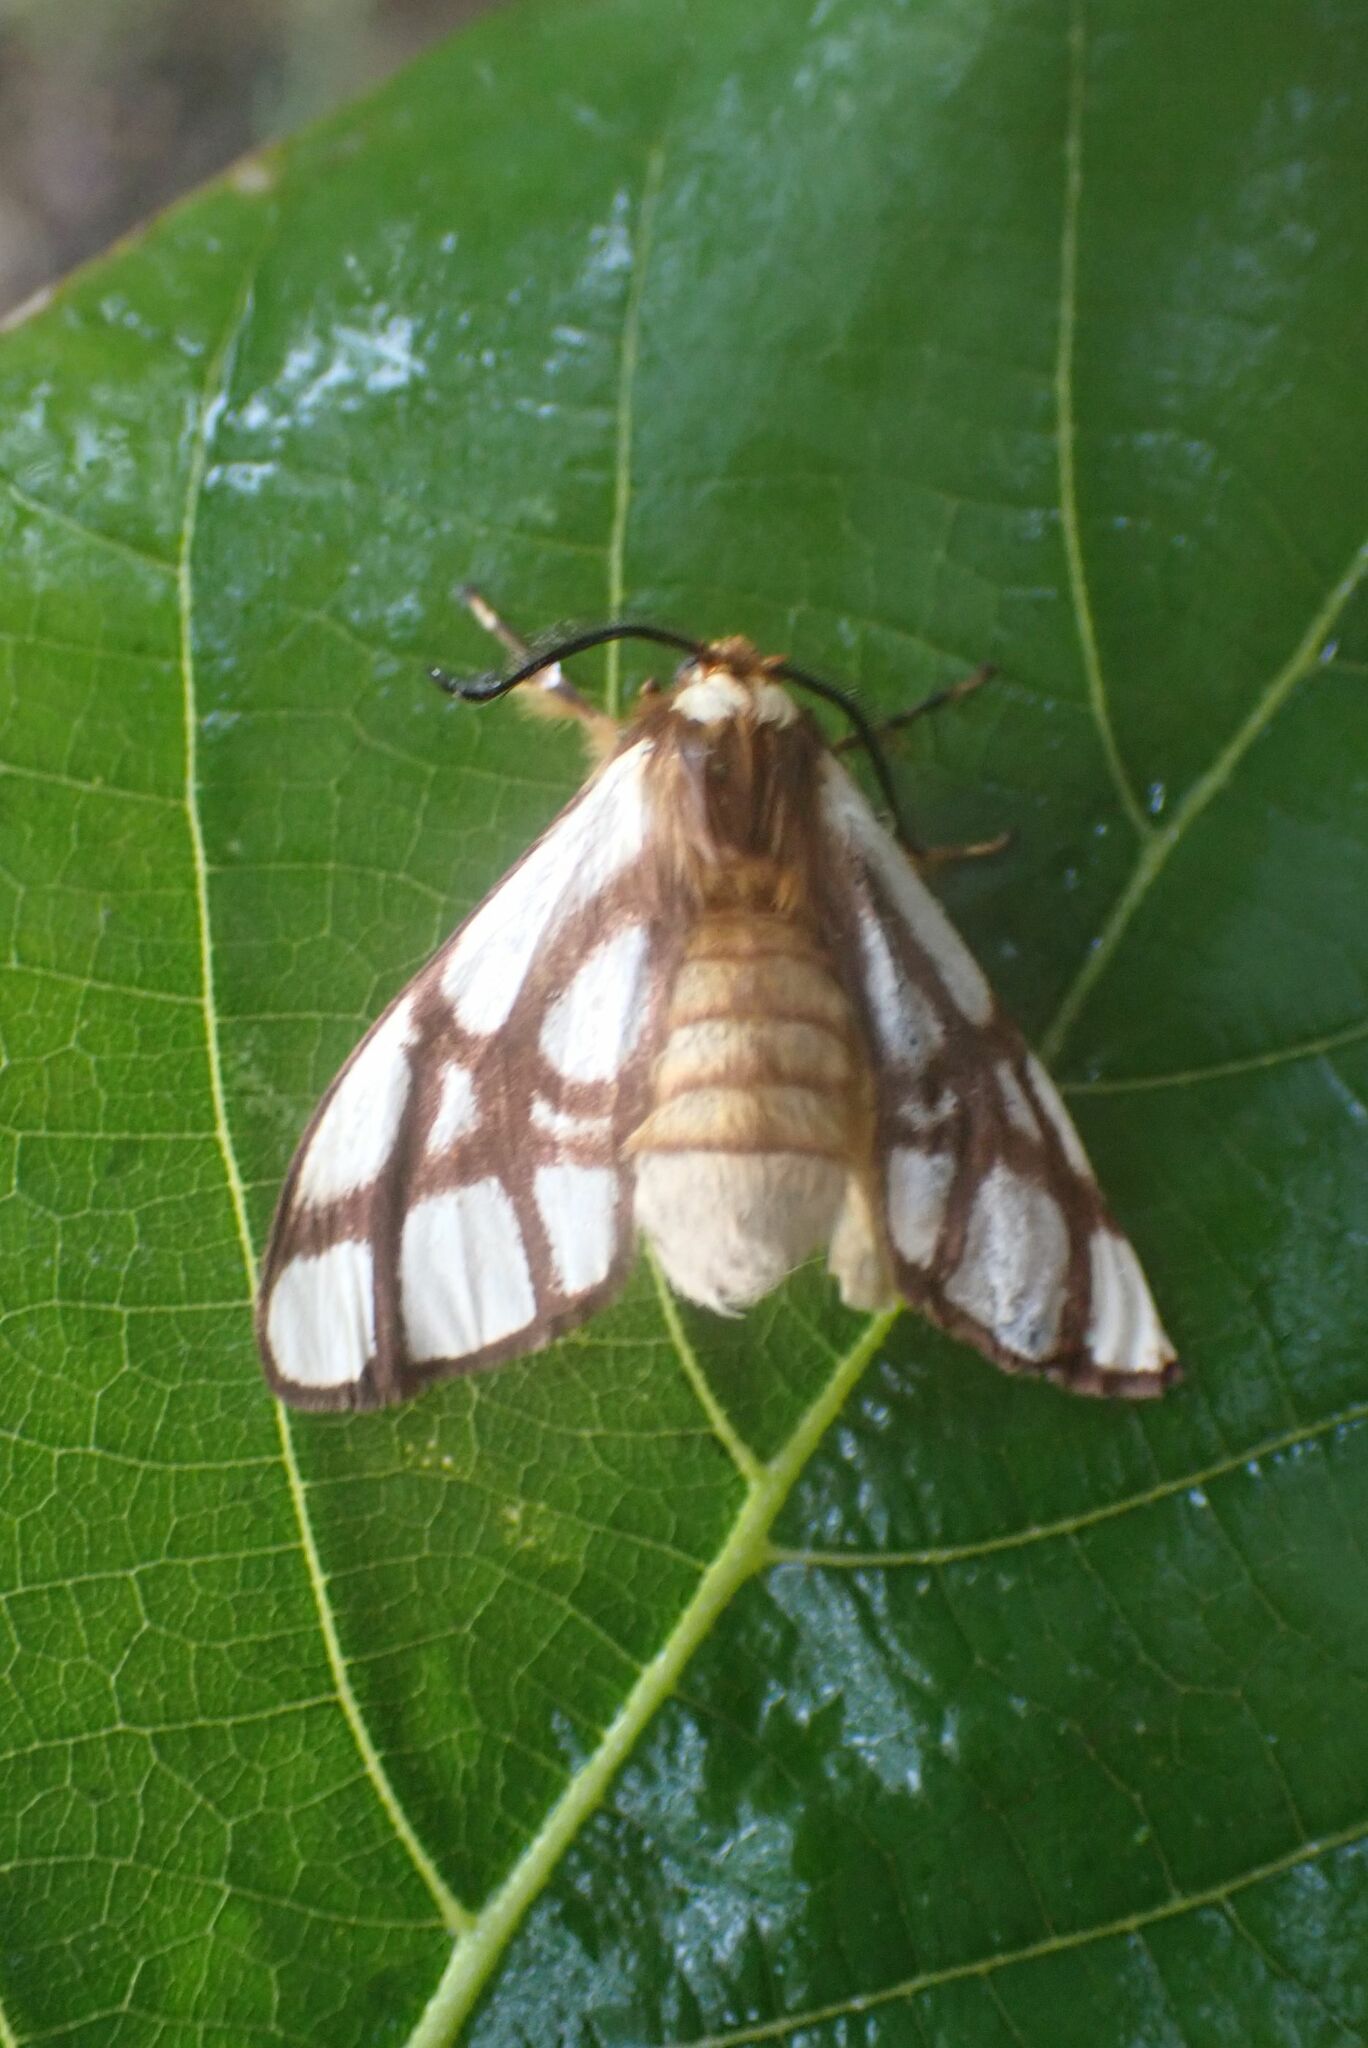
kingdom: Animalia
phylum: Arthropoda
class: Insecta
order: Lepidoptera
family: Notodontidae
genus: Anaphe
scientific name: Anaphe reticulata
